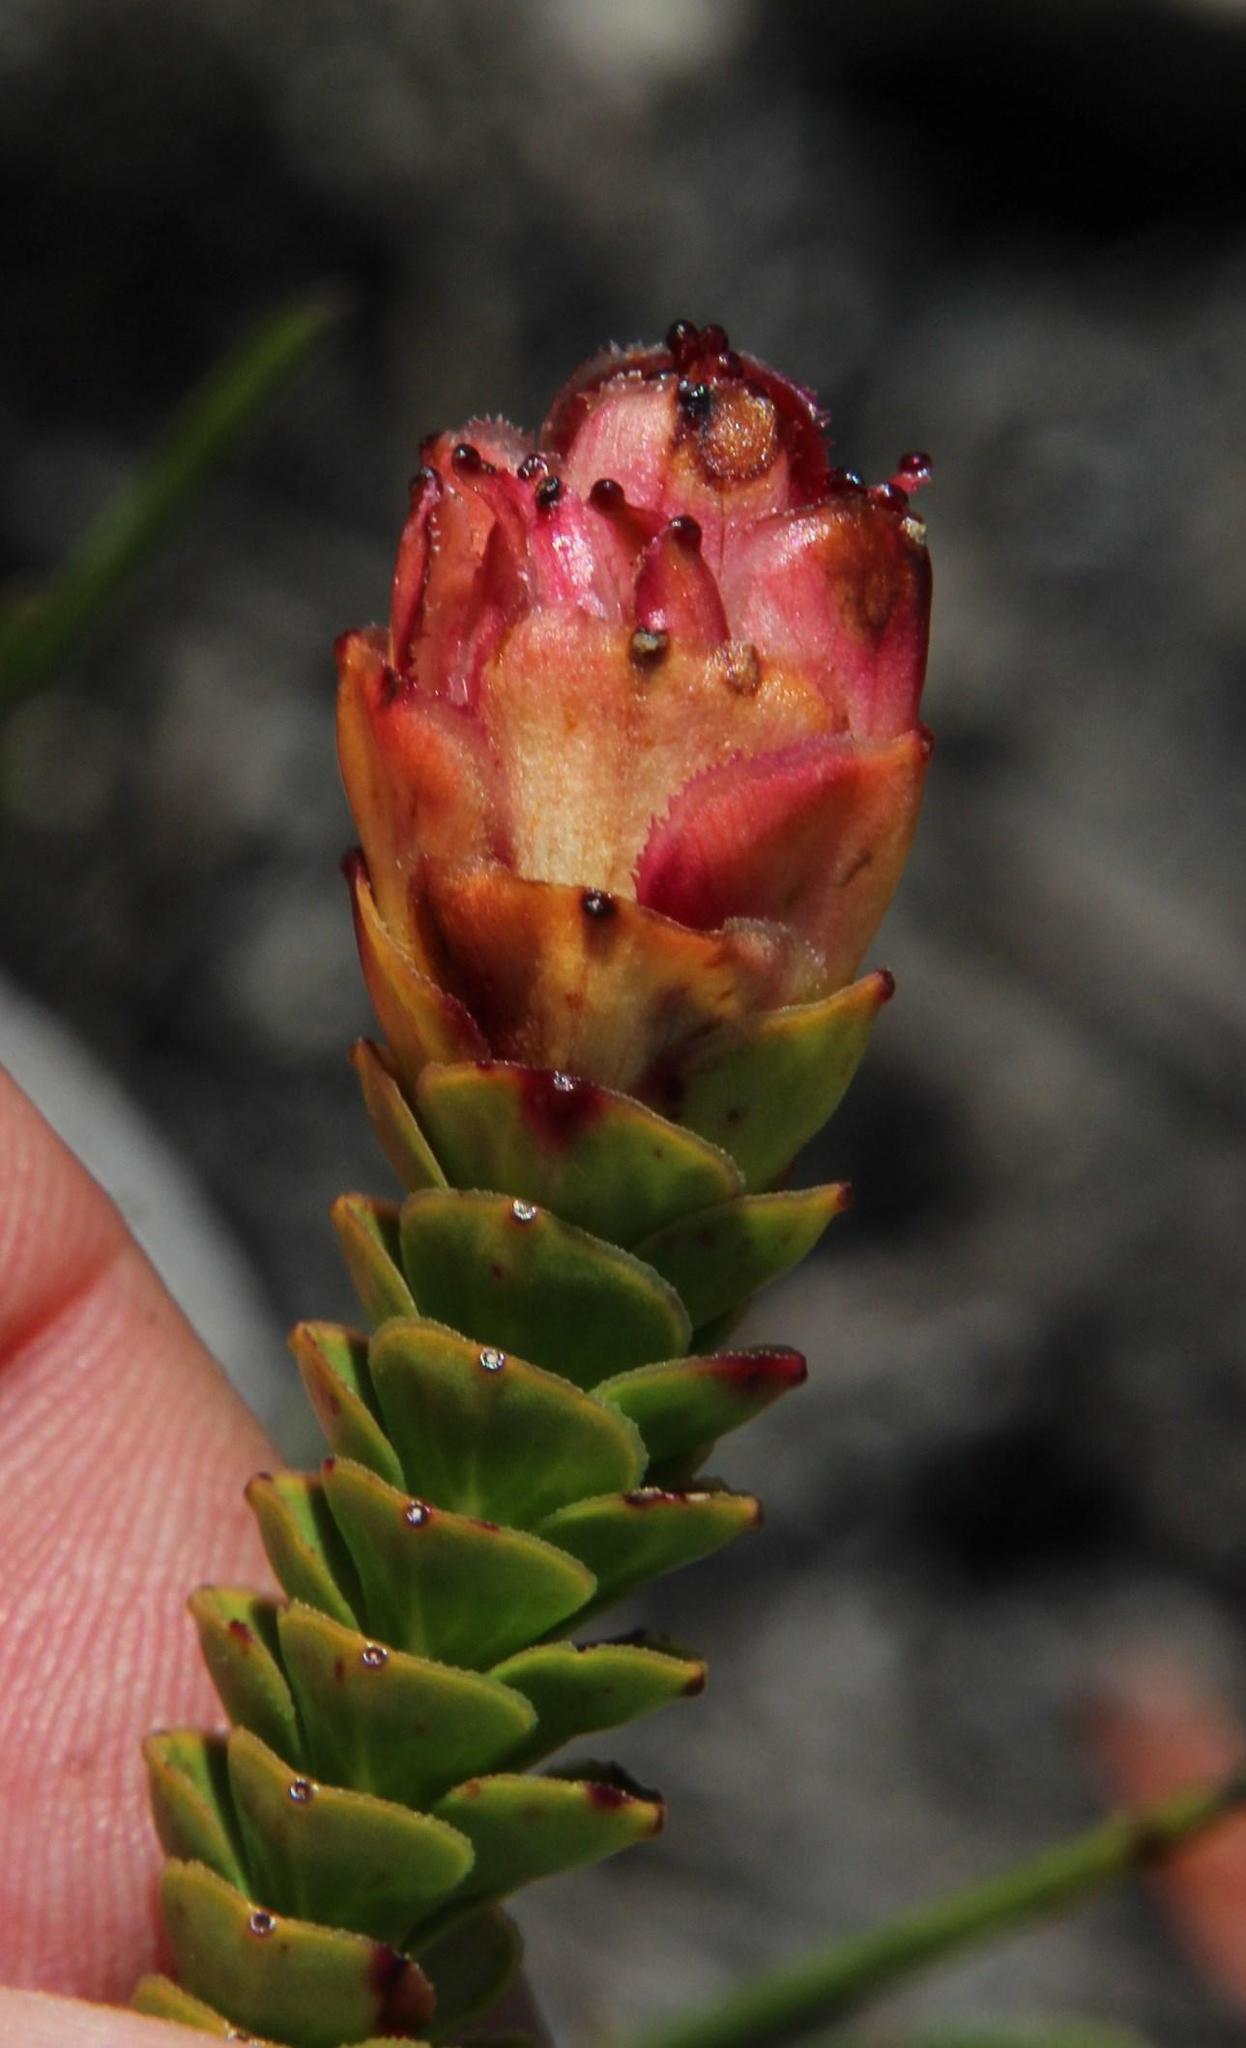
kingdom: Plantae
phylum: Tracheophyta
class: Magnoliopsida
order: Myrtales
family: Penaeaceae
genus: Sonderothamnus
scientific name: Sonderothamnus speciosus
